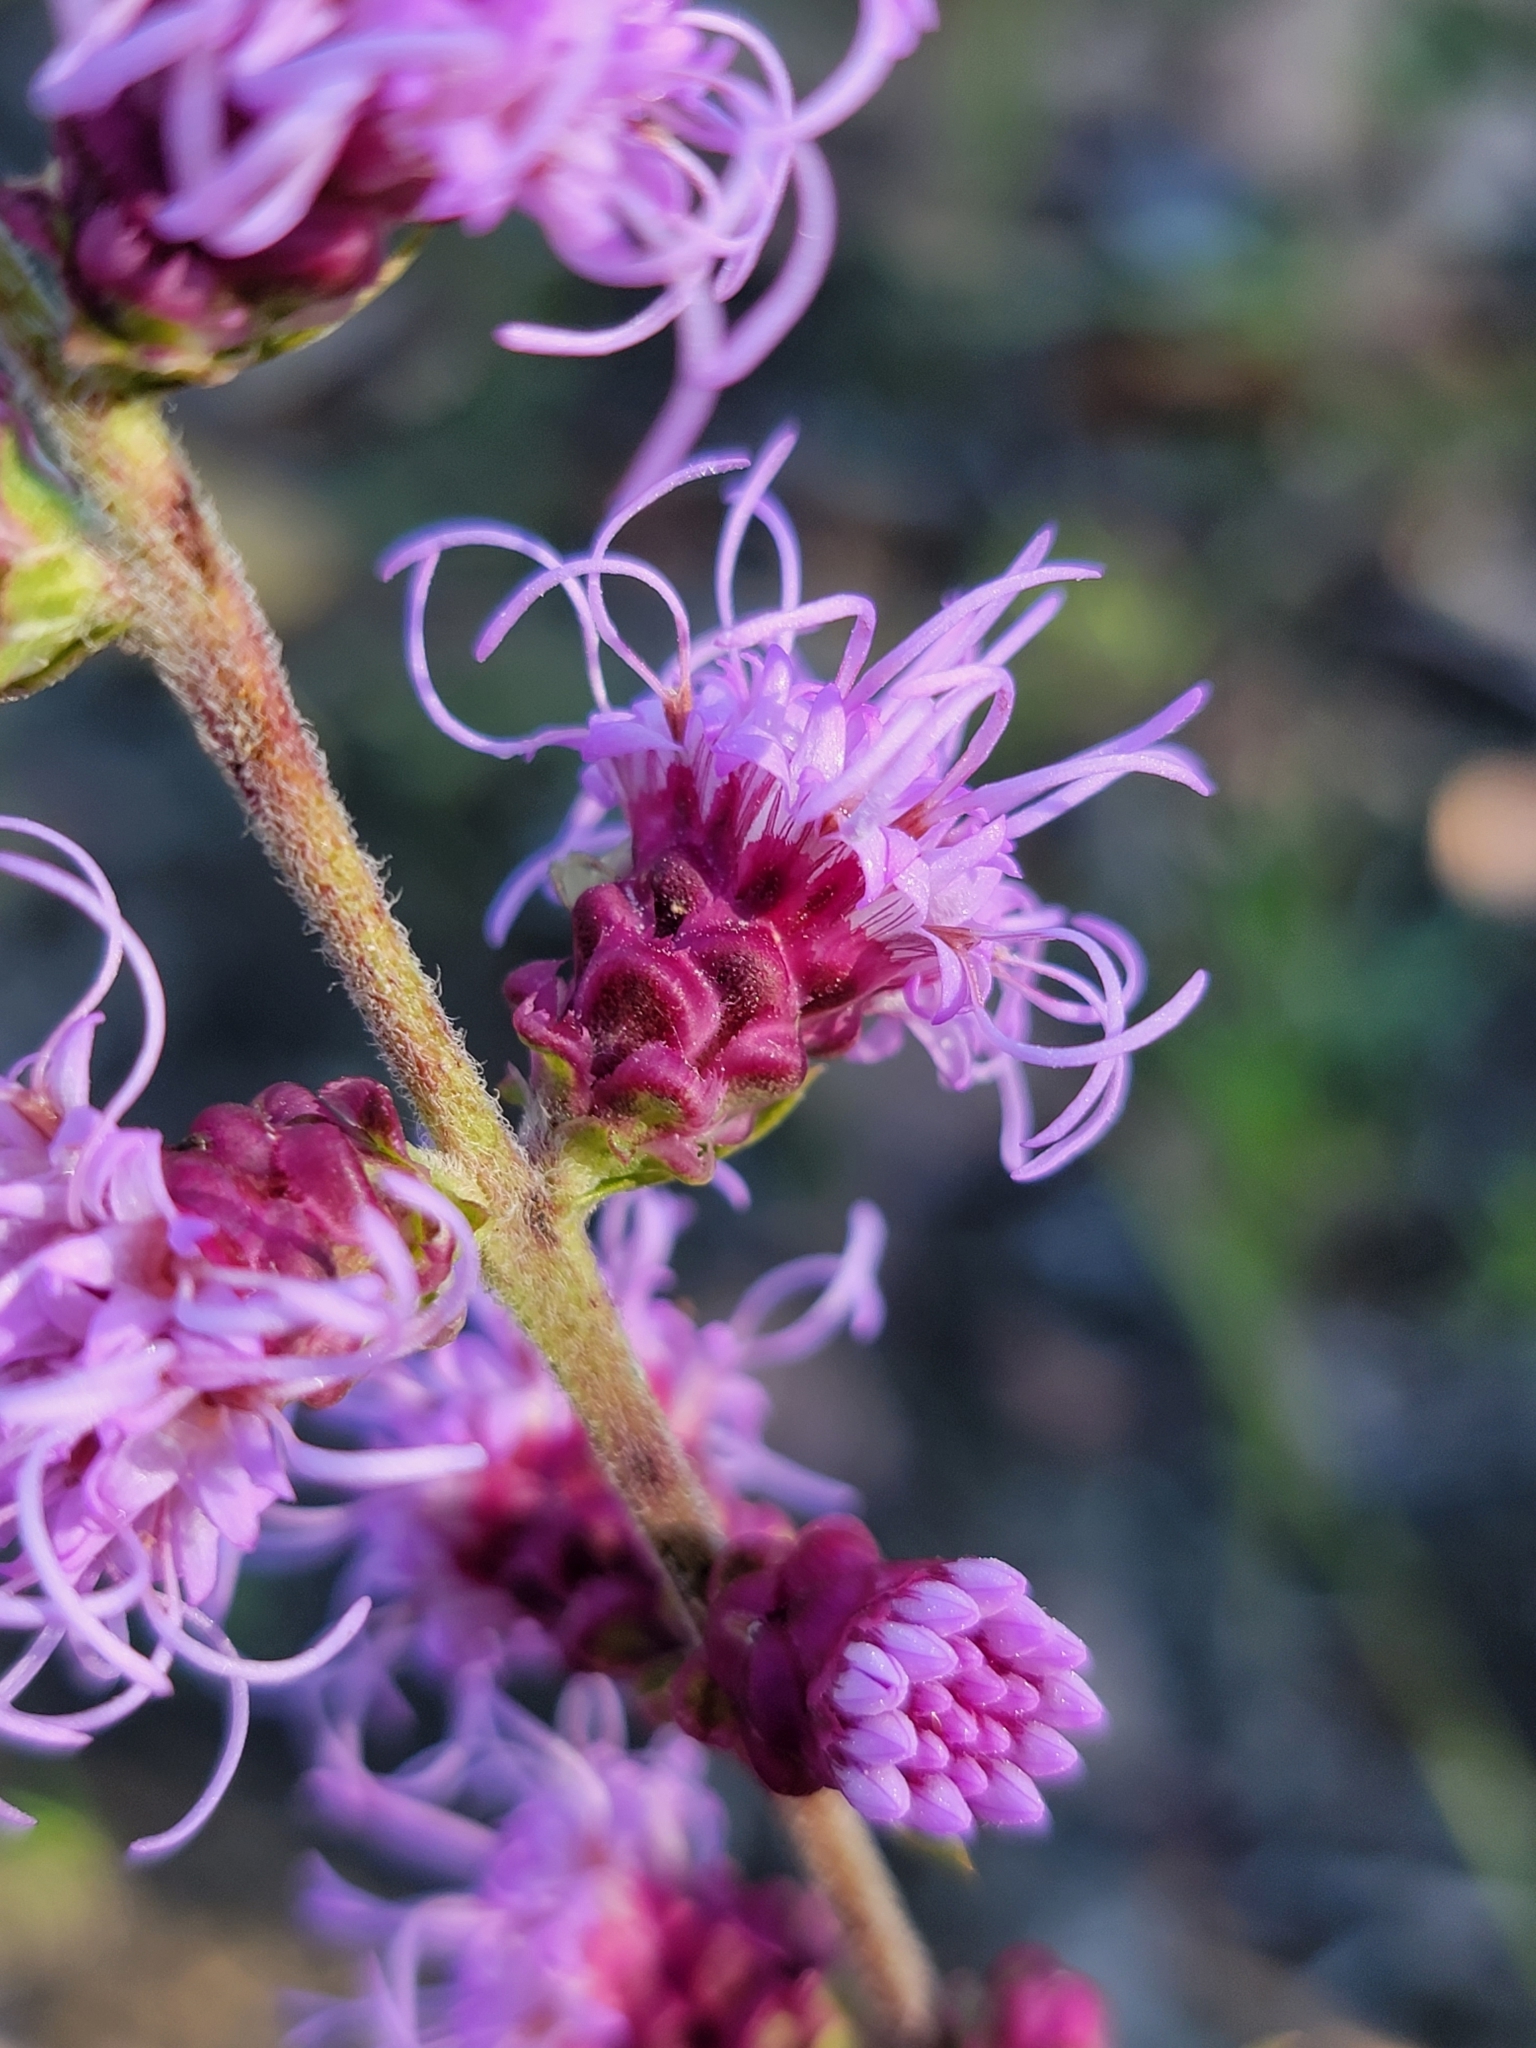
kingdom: Plantae
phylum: Tracheophyta
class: Magnoliopsida
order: Asterales
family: Asteraceae
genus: Liatris
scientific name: Liatris aspera
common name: Lacerate blazing-star
